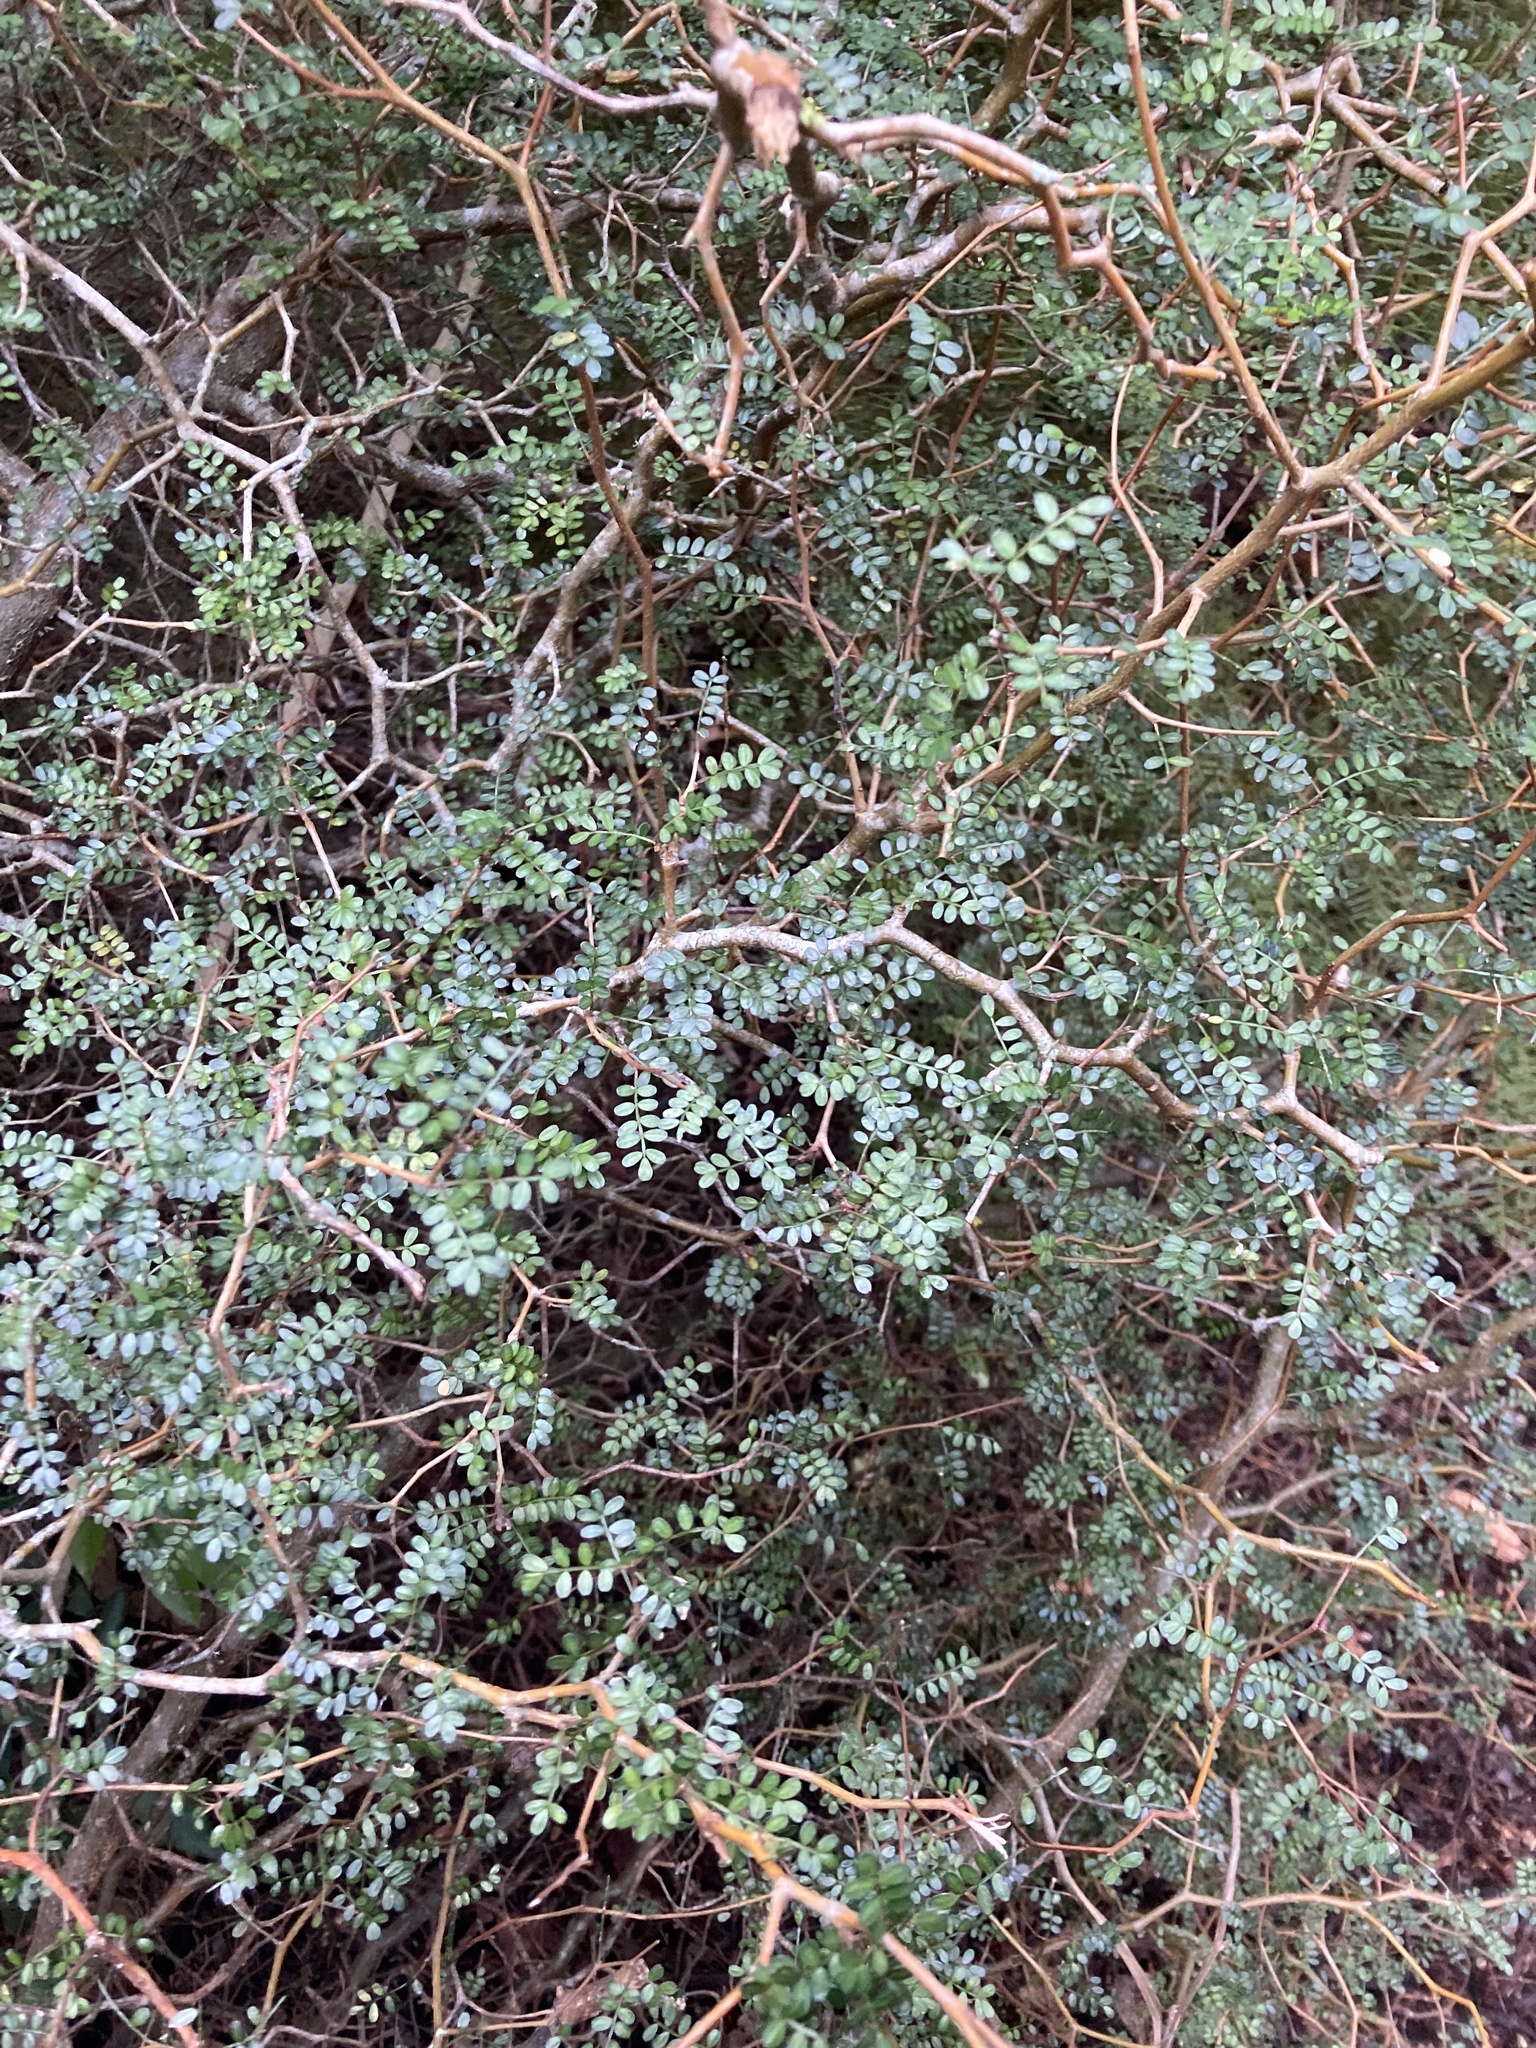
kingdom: Plantae
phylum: Tracheophyta
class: Magnoliopsida
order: Fabales
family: Fabaceae
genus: Sophora
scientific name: Sophora prostrata
